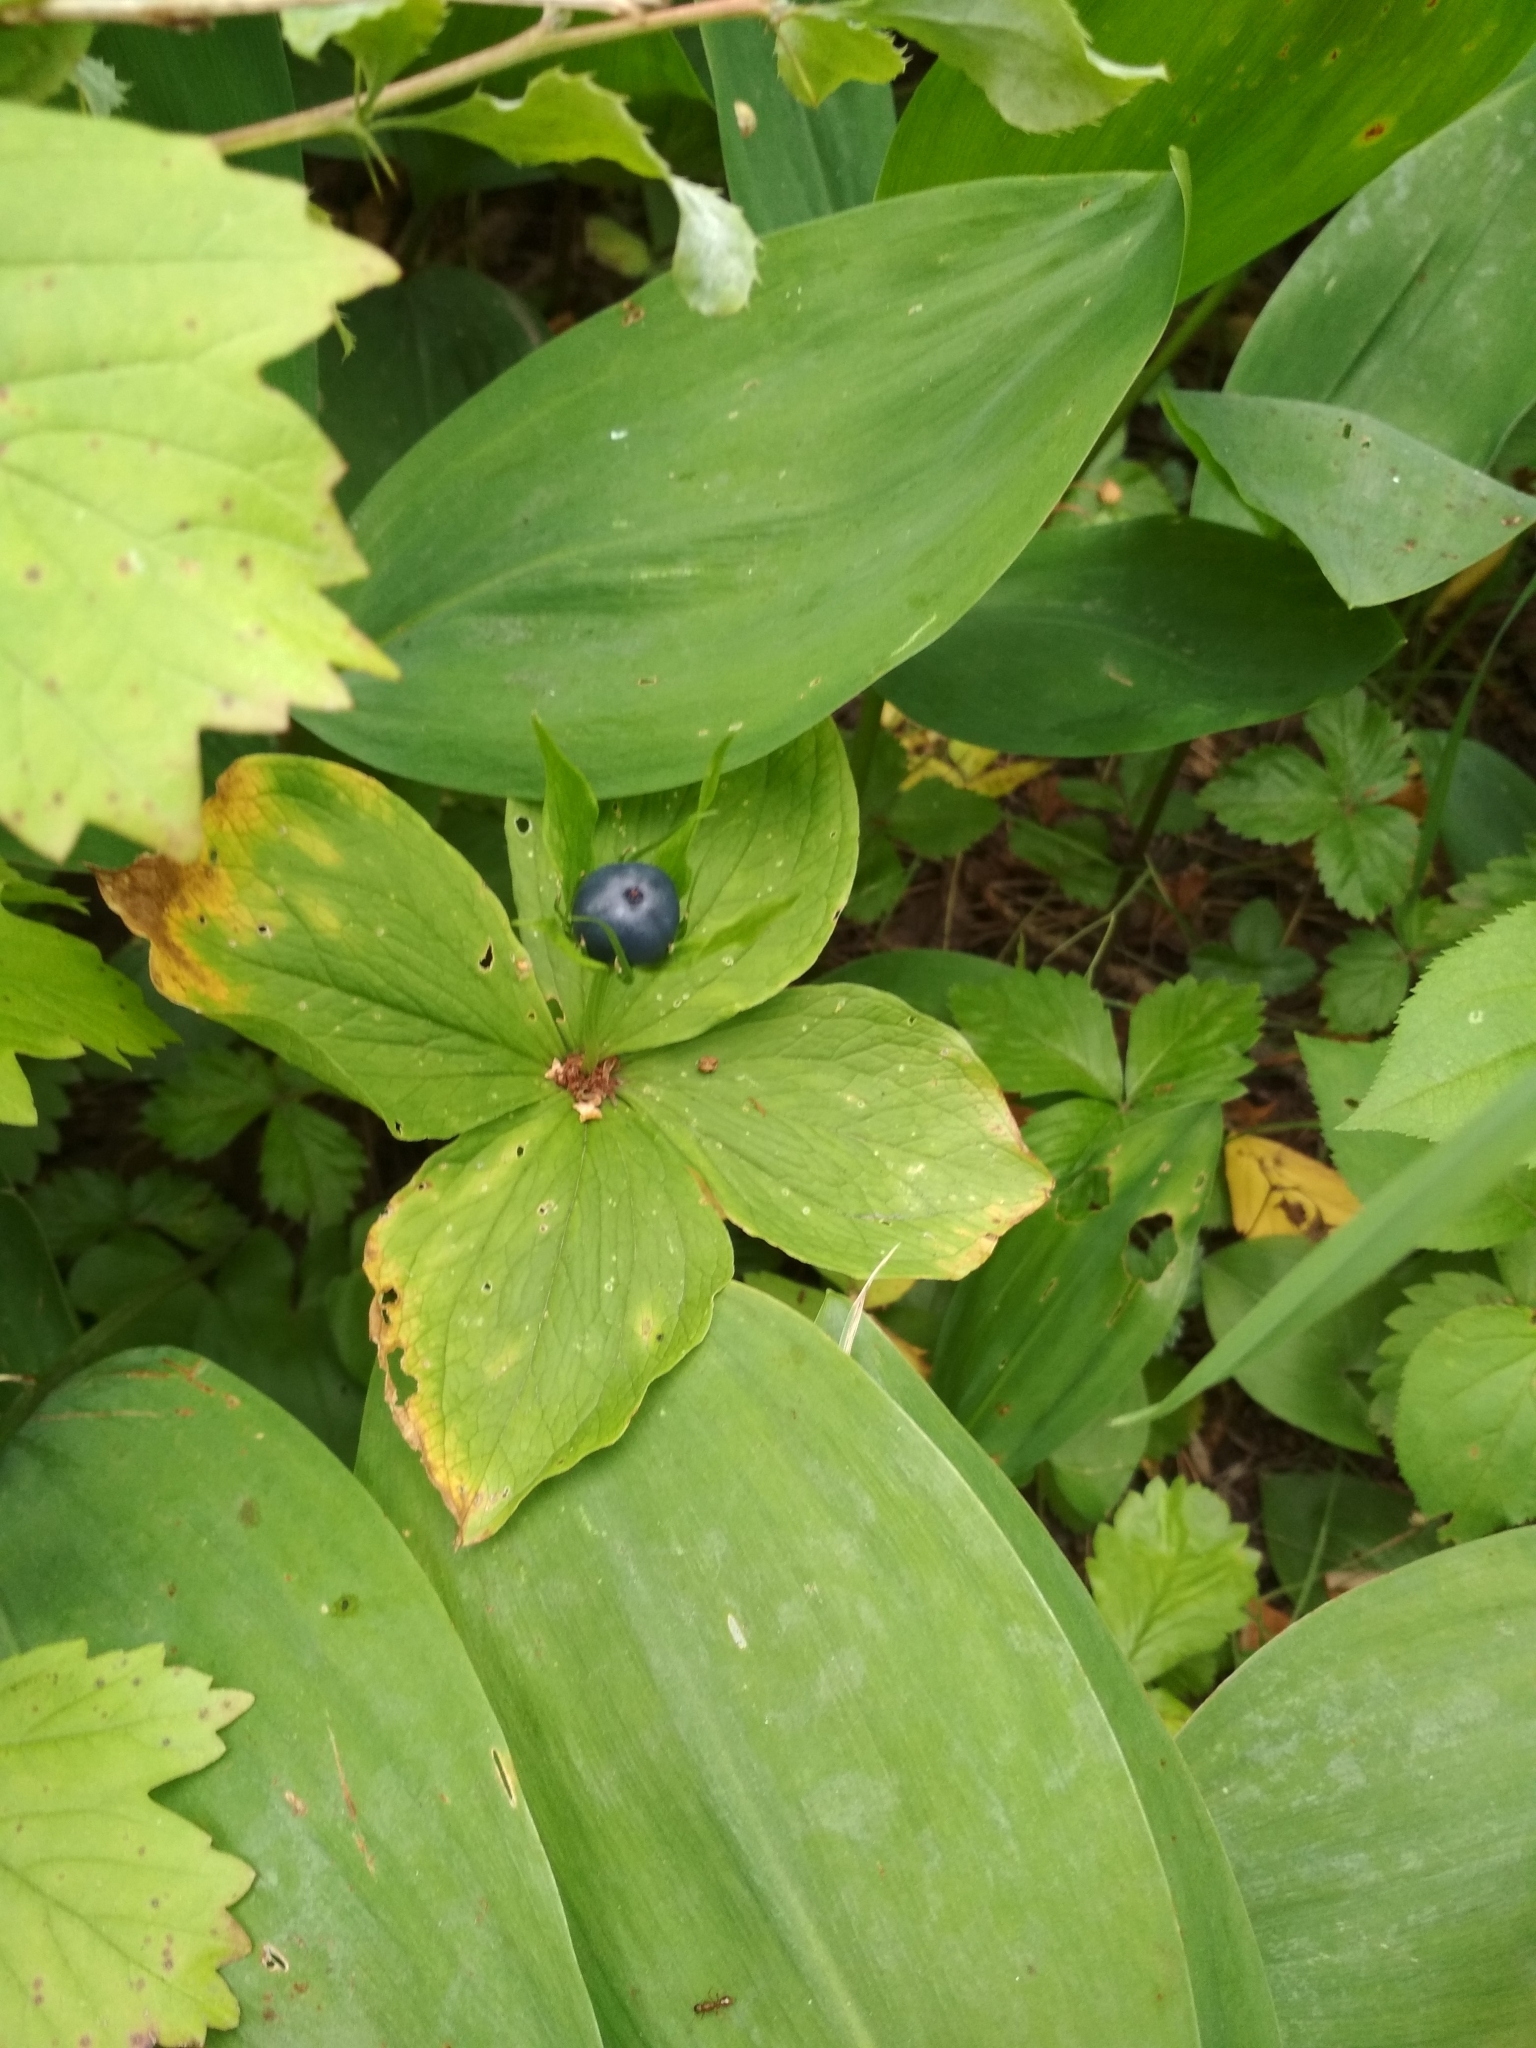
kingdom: Plantae
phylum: Tracheophyta
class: Liliopsida
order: Liliales
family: Melanthiaceae
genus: Paris
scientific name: Paris quadrifolia
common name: Herb-paris
